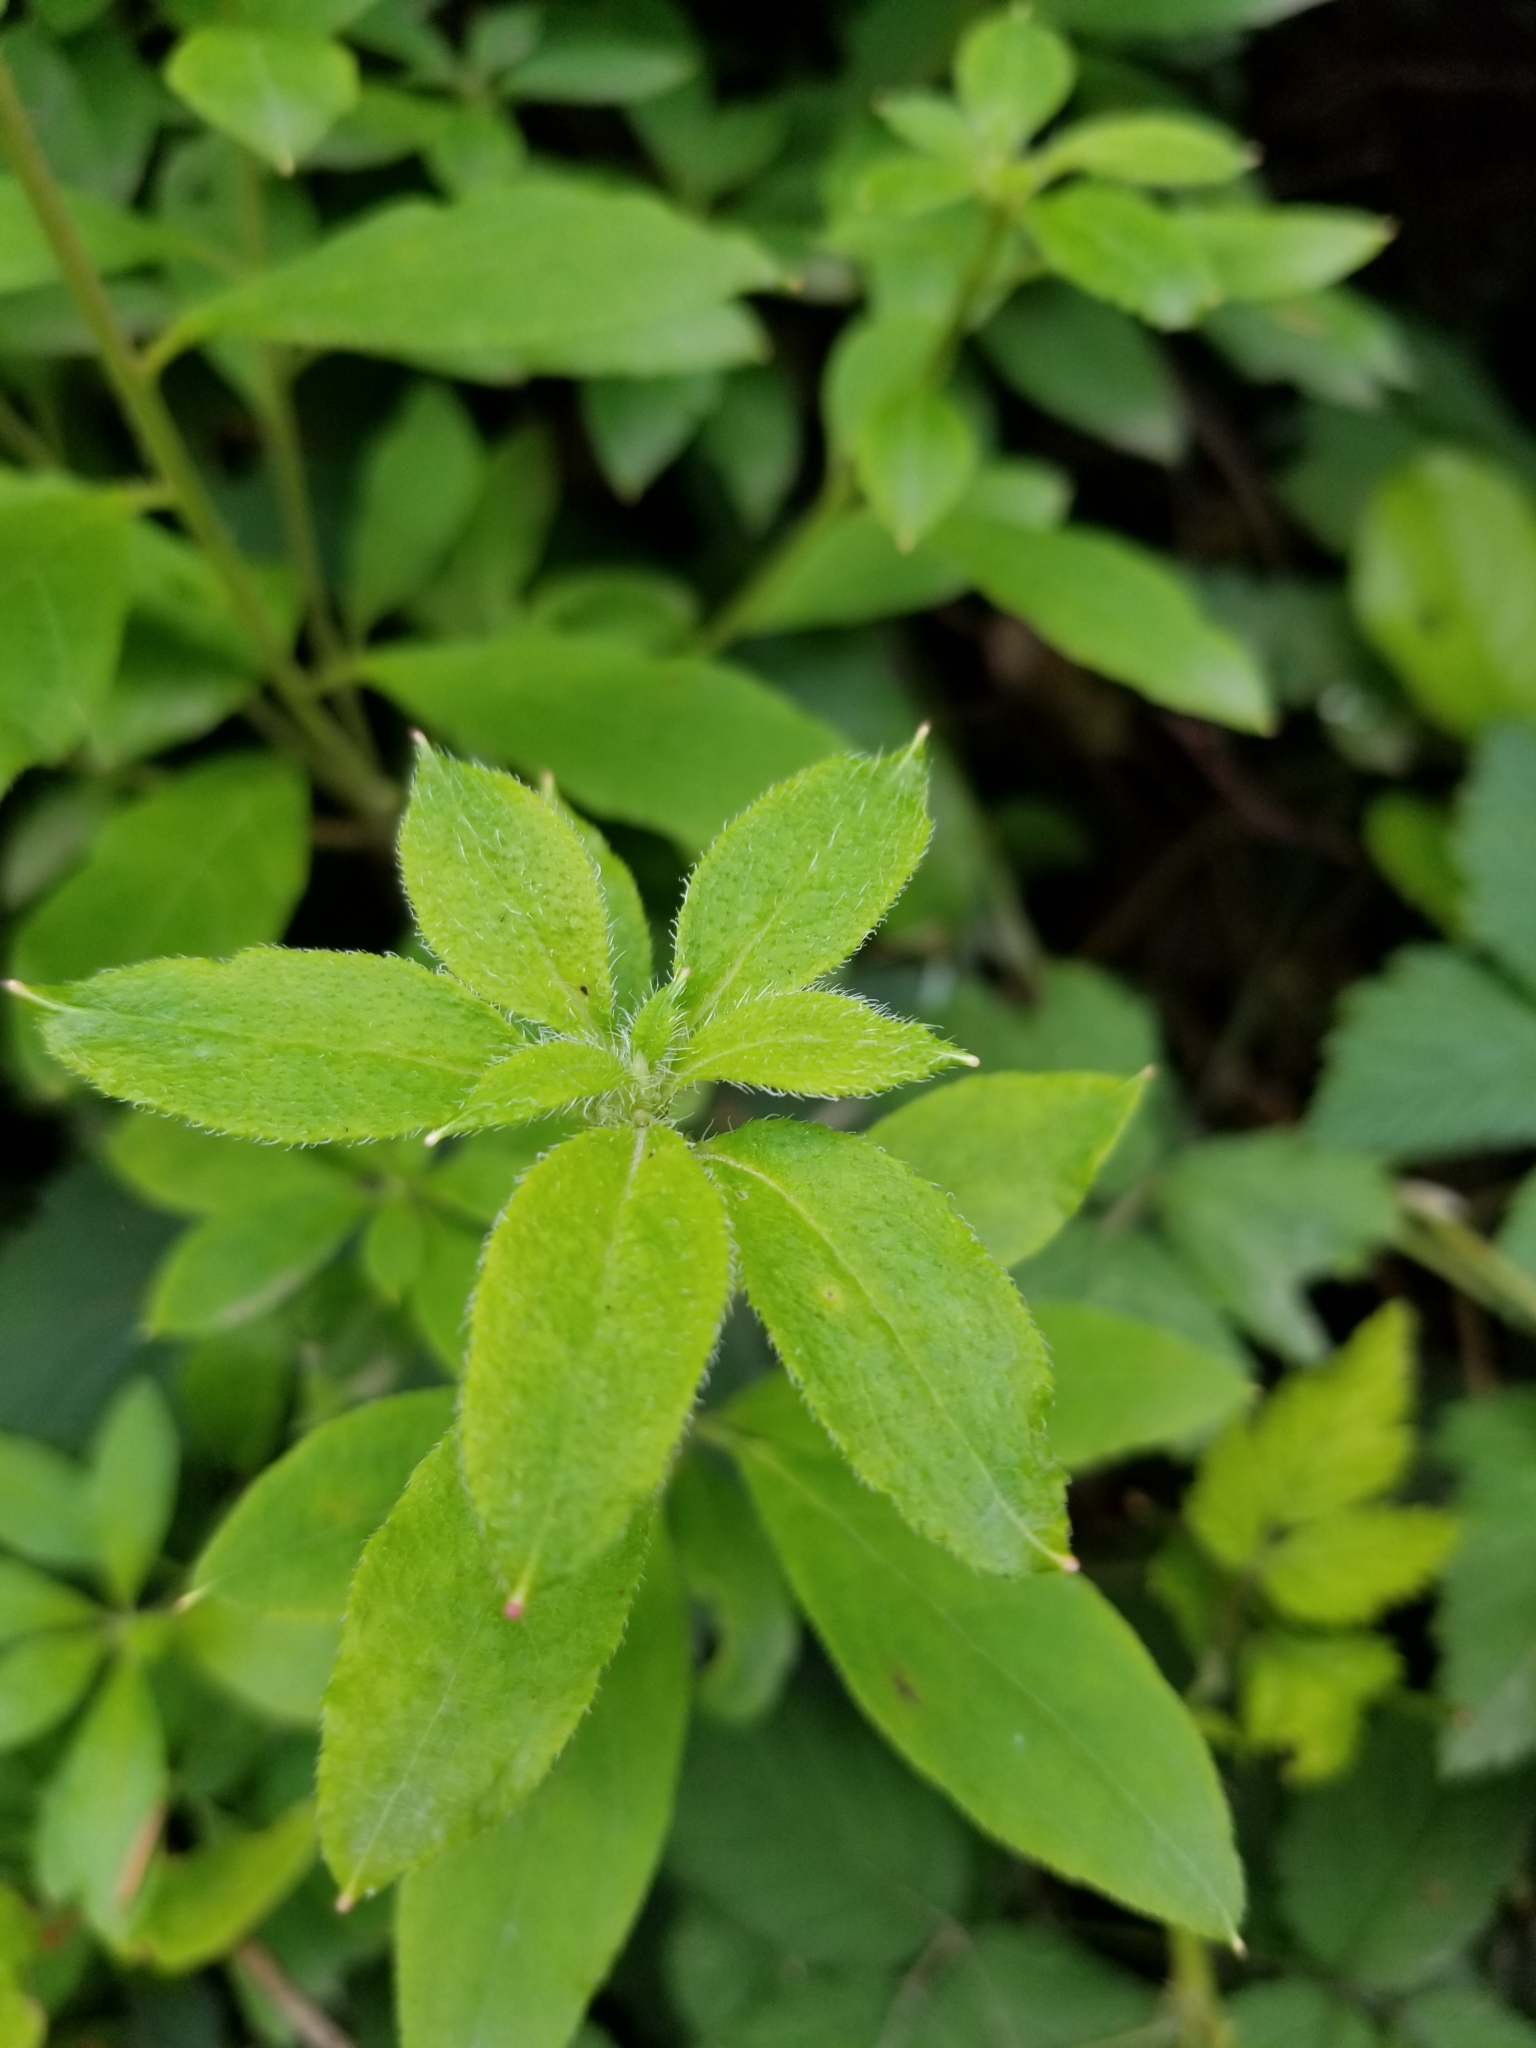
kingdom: Plantae
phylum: Tracheophyta
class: Magnoliopsida
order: Ericales
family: Ericaceae
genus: Rhododendron
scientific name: Rhododendron menziesii
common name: Pacific menziesia
